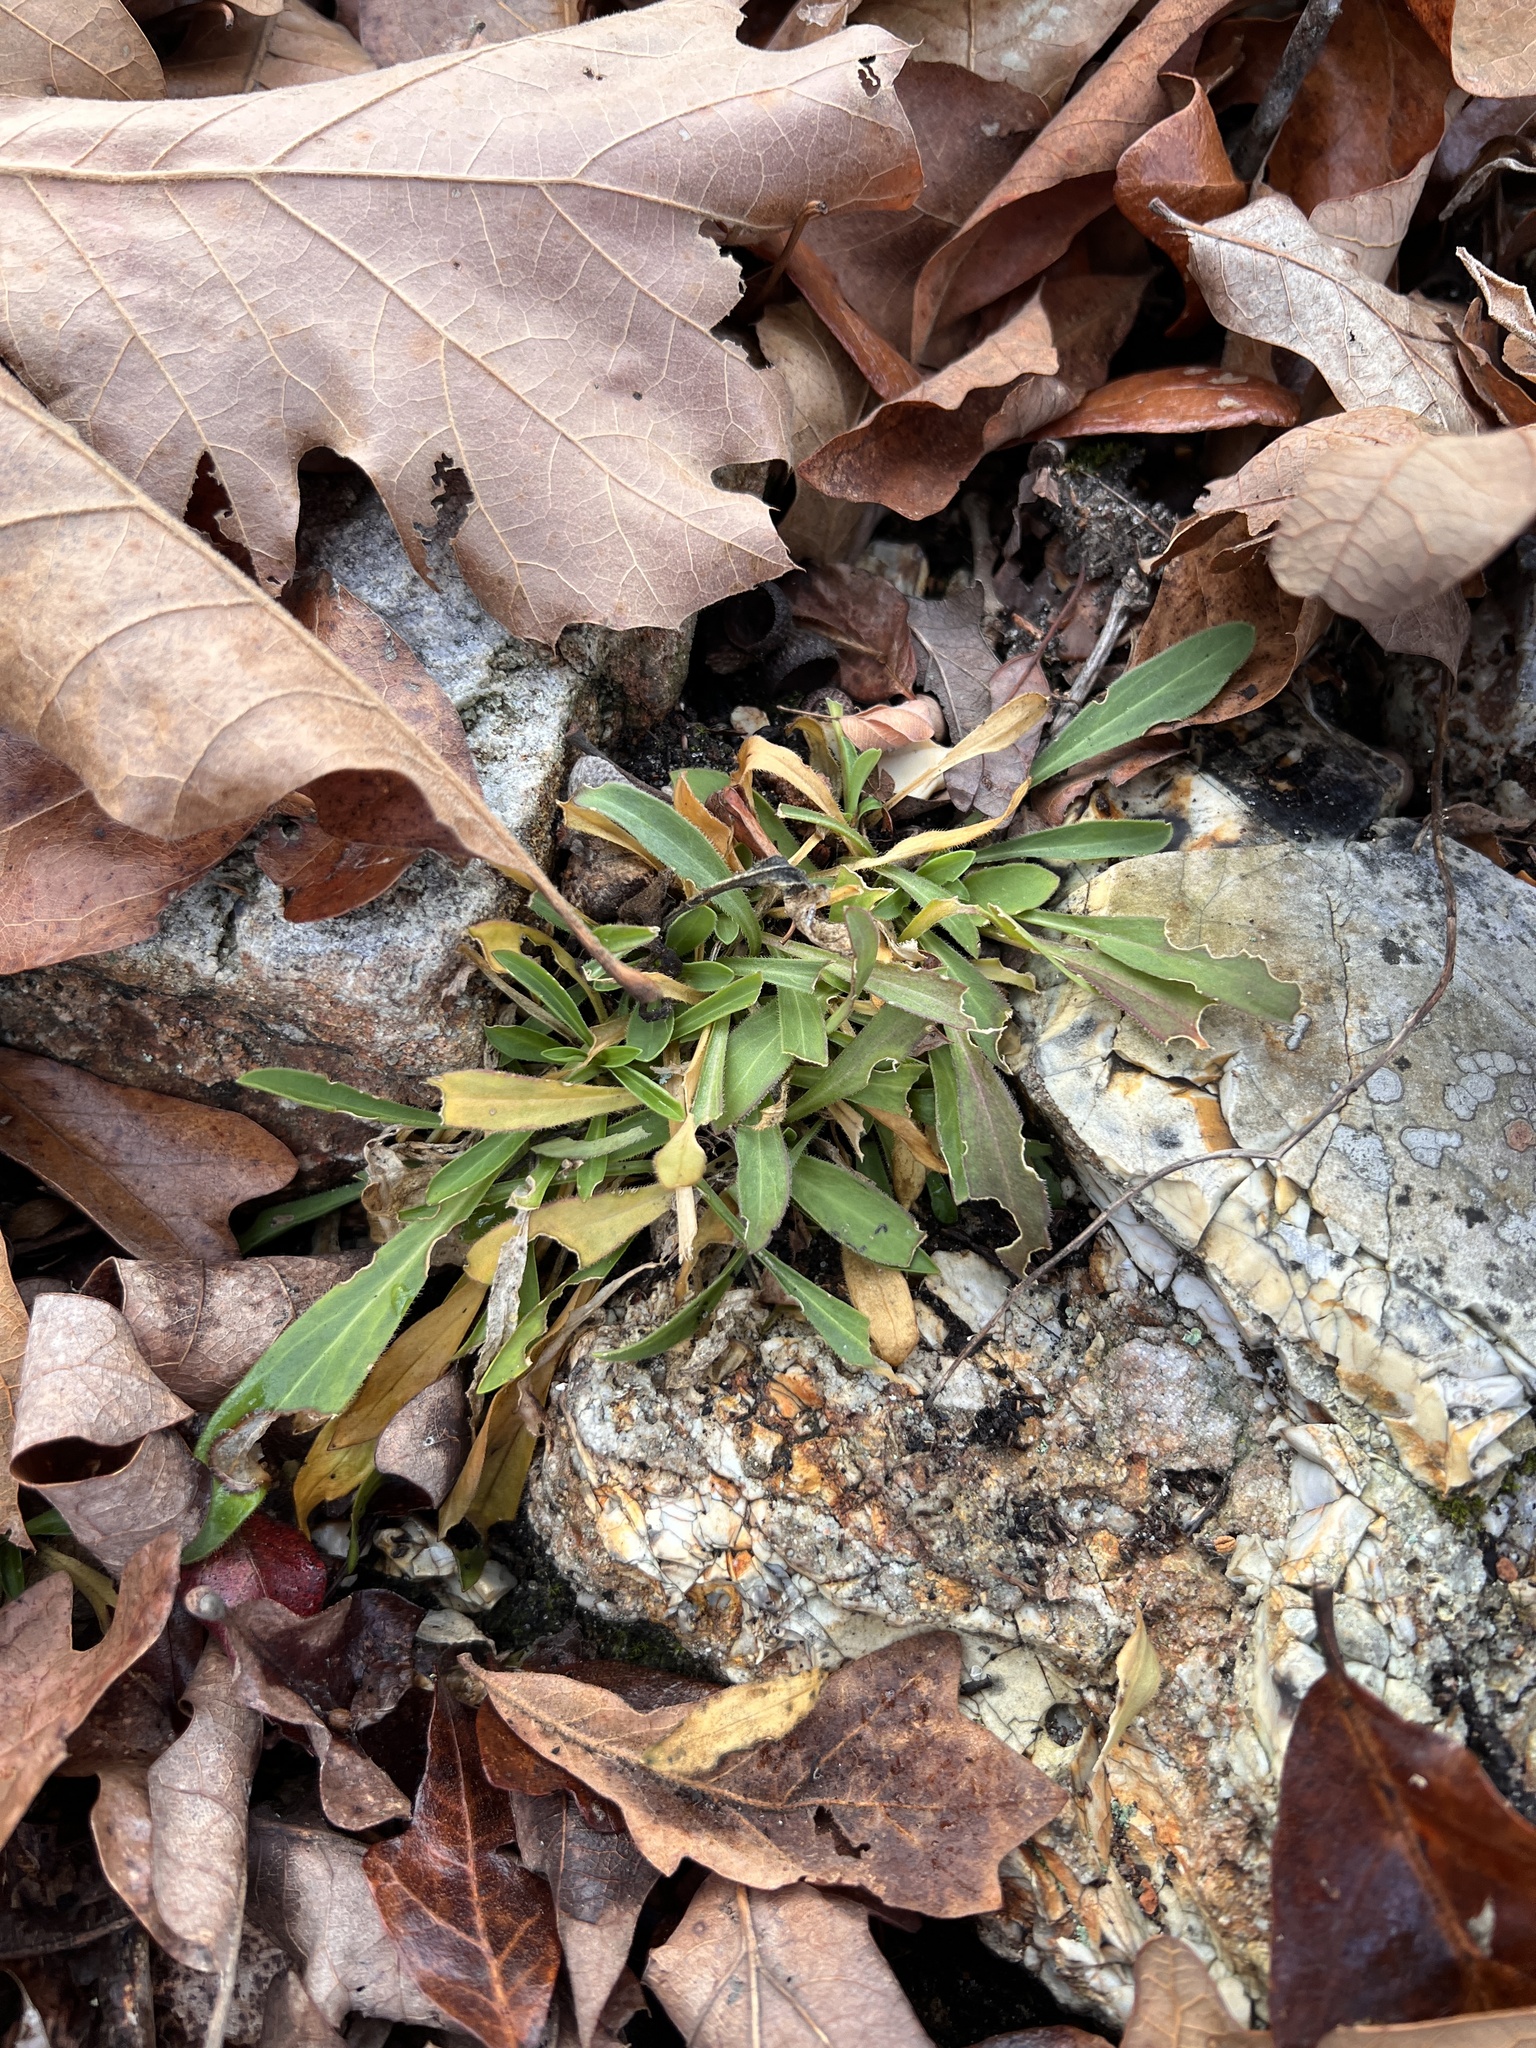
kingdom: Plantae
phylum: Tracheophyta
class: Magnoliopsida
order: Caryophyllales
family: Caryophyllaceae
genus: Silene
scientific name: Silene virginica
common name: Fire-pink
